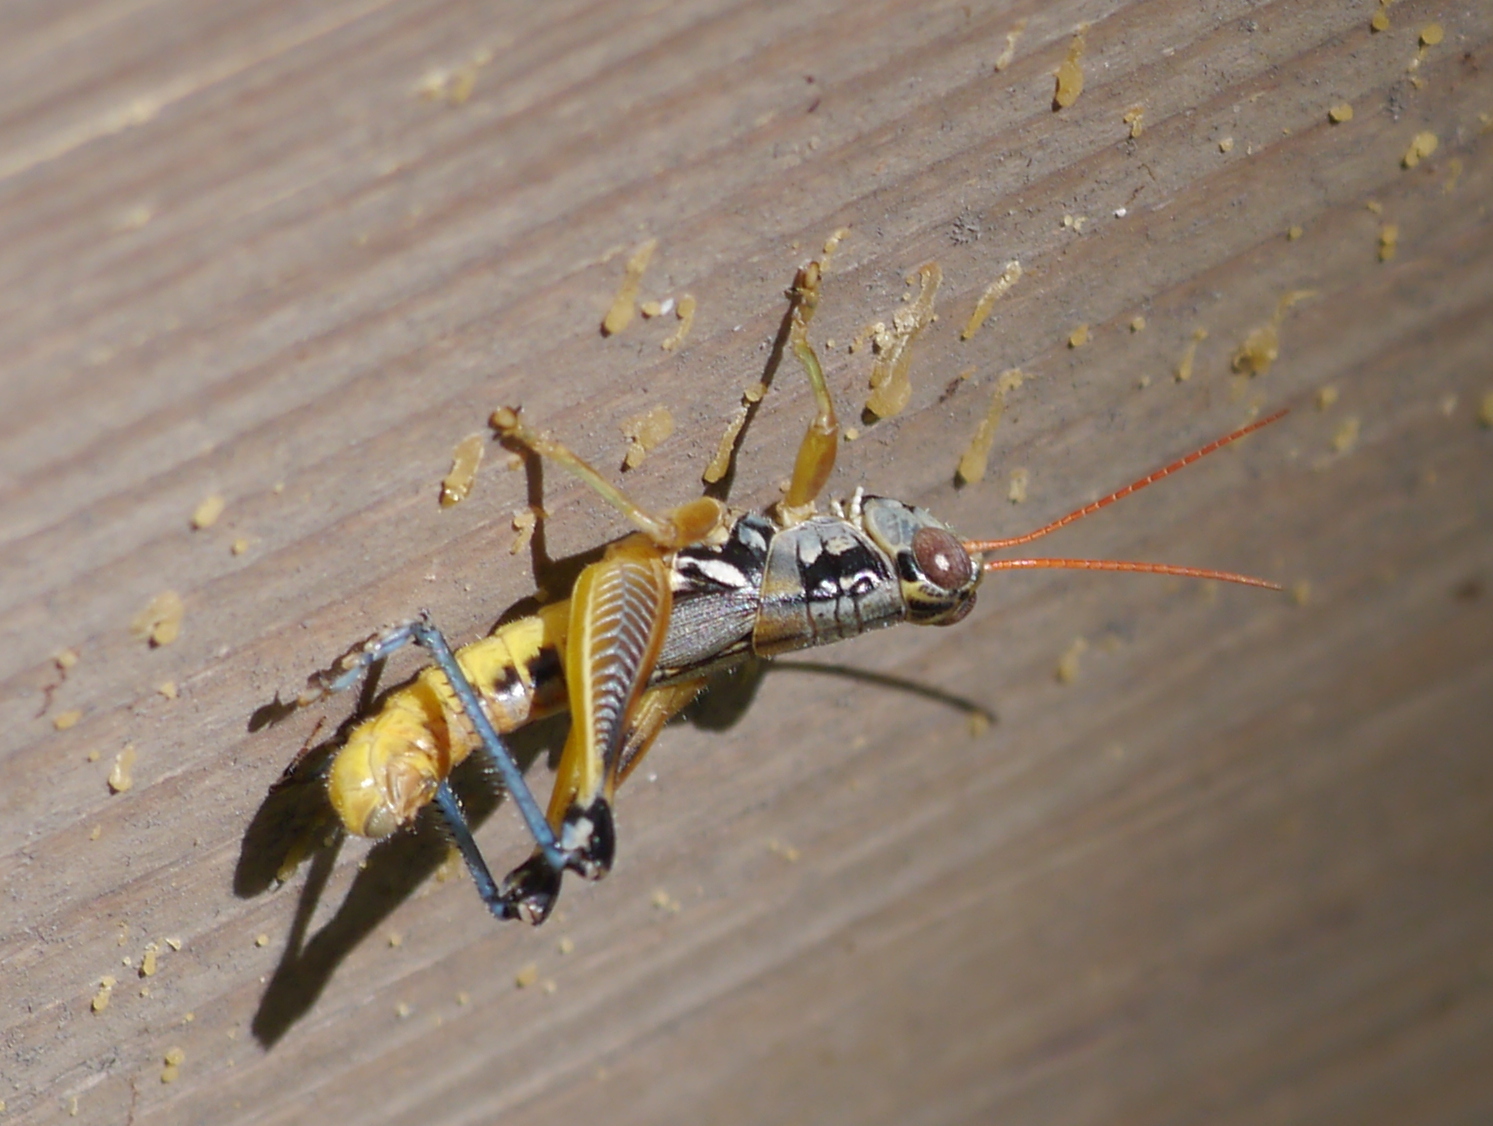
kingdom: Animalia
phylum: Arthropoda
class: Insecta
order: Orthoptera
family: Acrididae
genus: Melanoplus
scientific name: Melanoplus aridus
